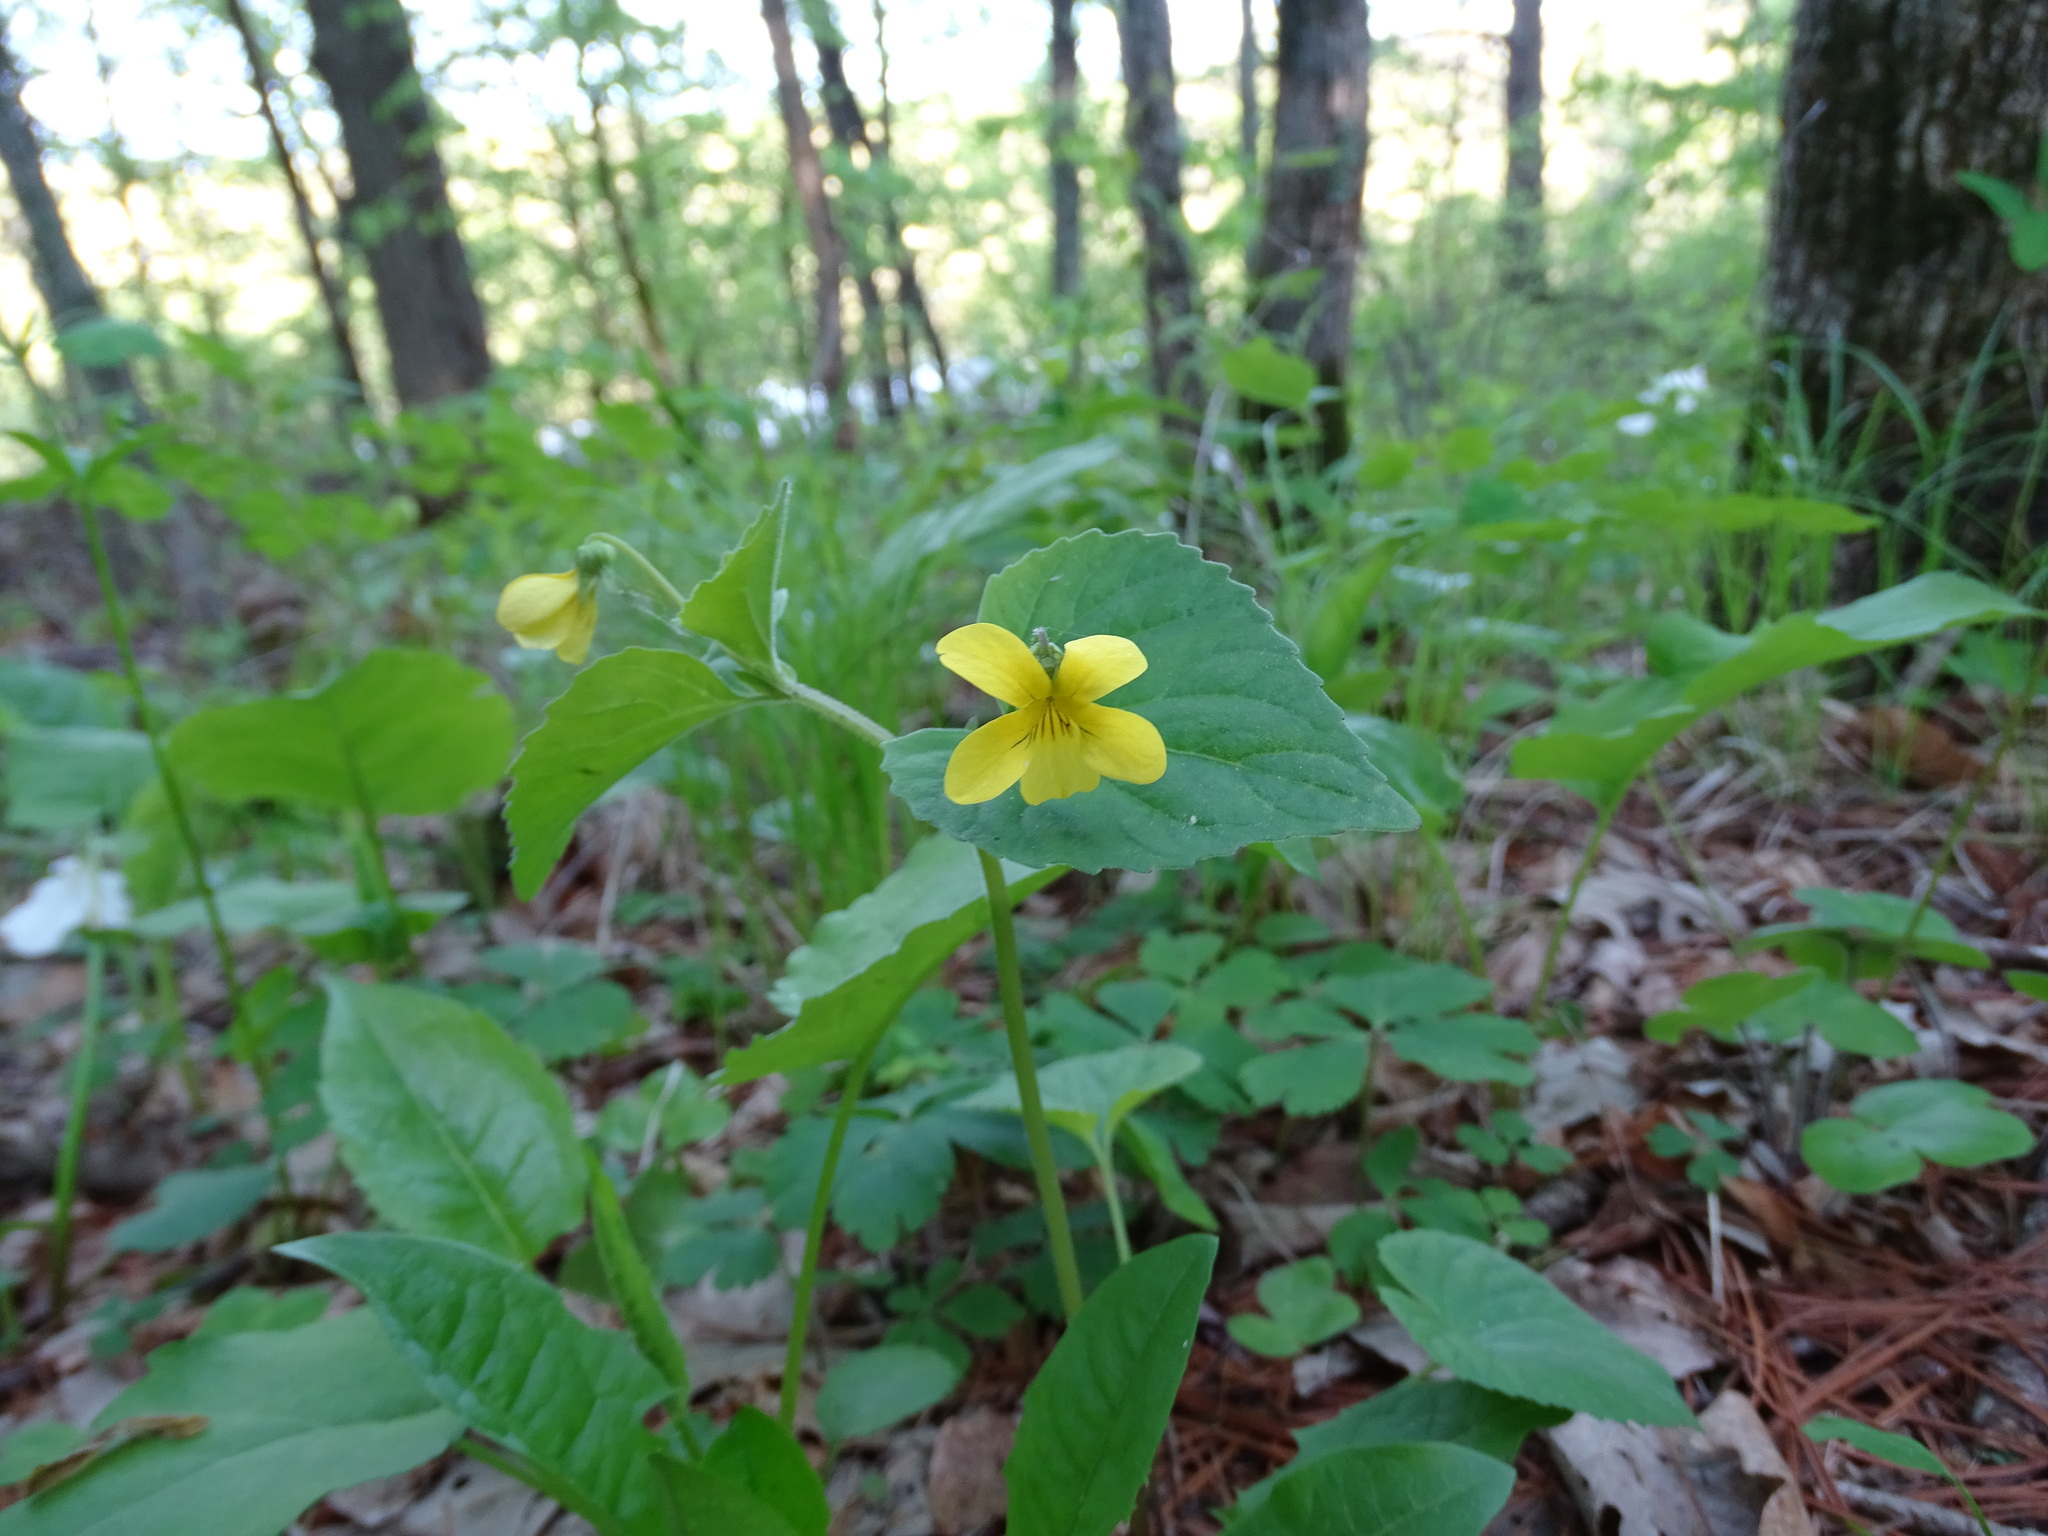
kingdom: Plantae
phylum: Tracheophyta
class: Magnoliopsida
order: Malpighiales
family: Violaceae
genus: Viola
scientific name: Viola eriocarpa
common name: Smooth yellow violet
